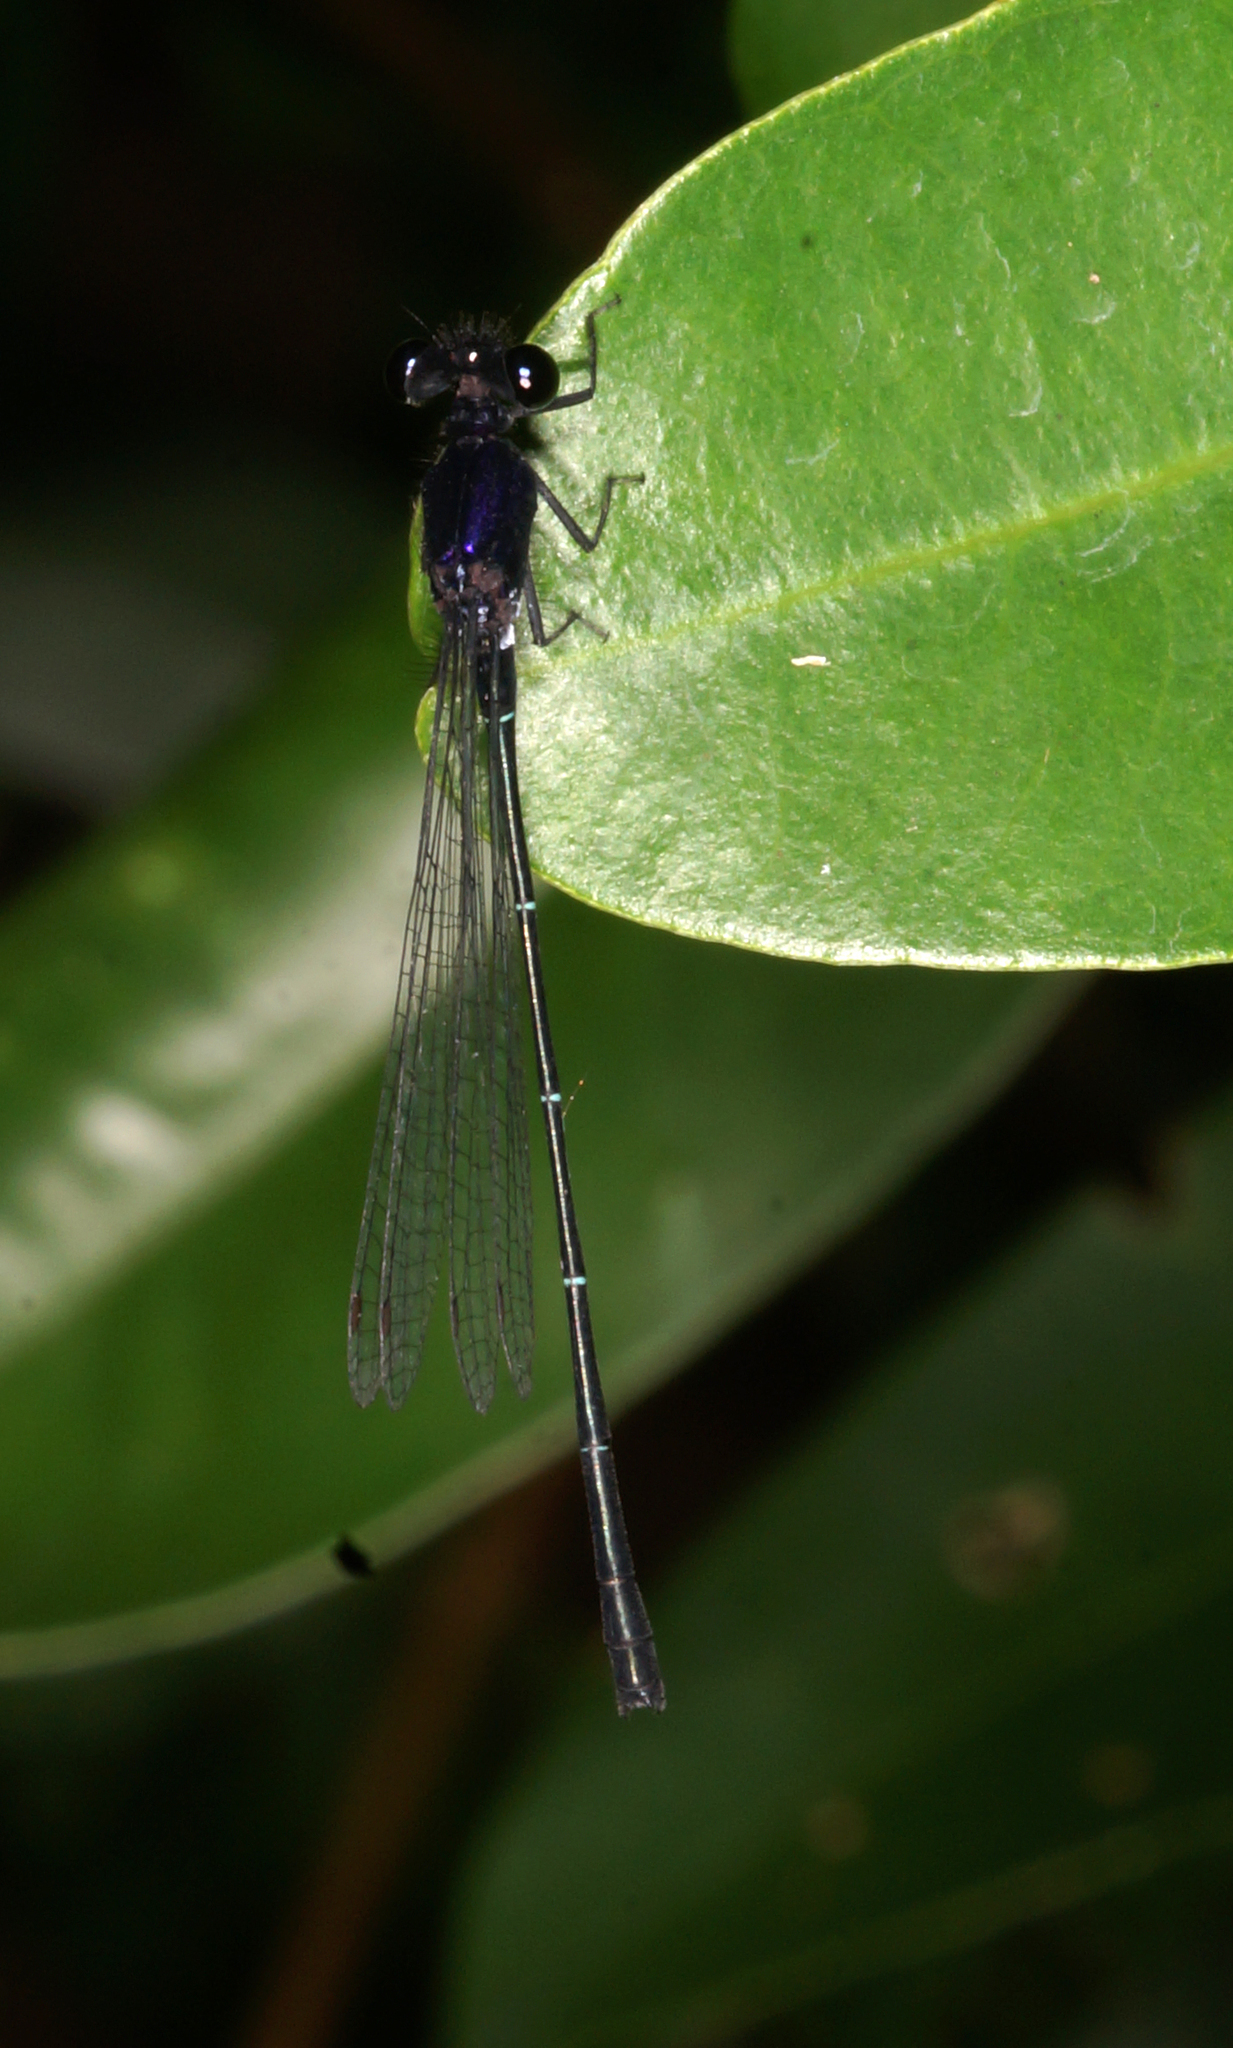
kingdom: Animalia
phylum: Arthropoda
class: Insecta
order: Odonata
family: Platycnemididae
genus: Onychargia
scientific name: Onychargia atrocyana
